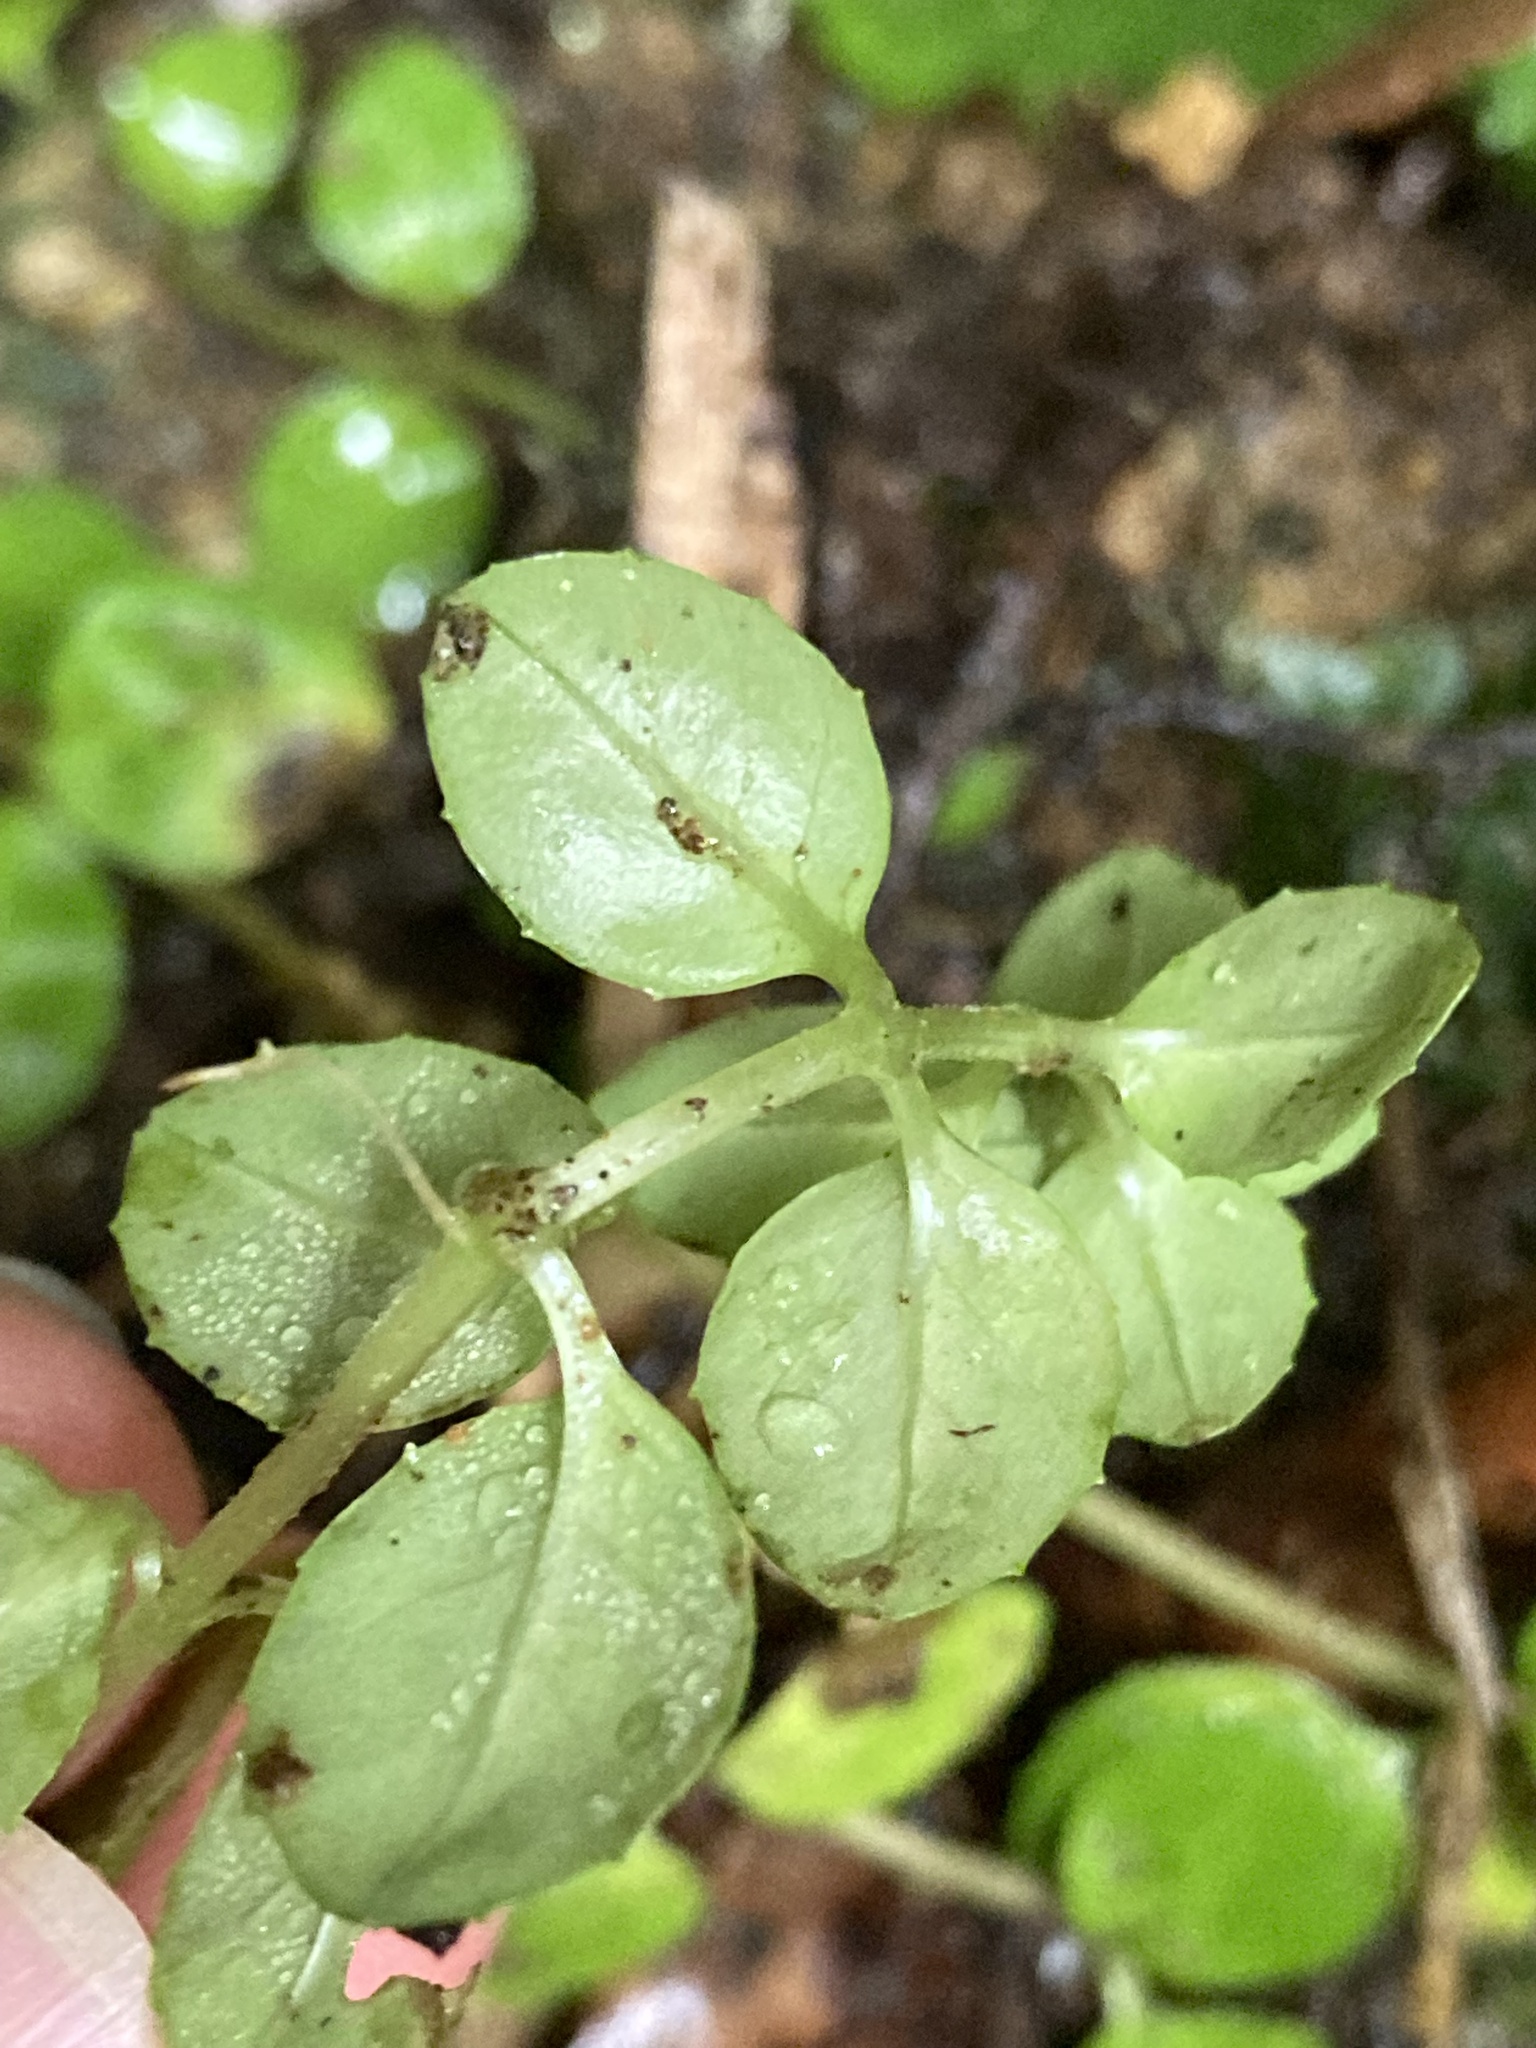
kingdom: Plantae
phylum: Tracheophyta
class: Magnoliopsida
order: Myrtales
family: Onagraceae
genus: Epilobium
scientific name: Epilobium rotundifolium
